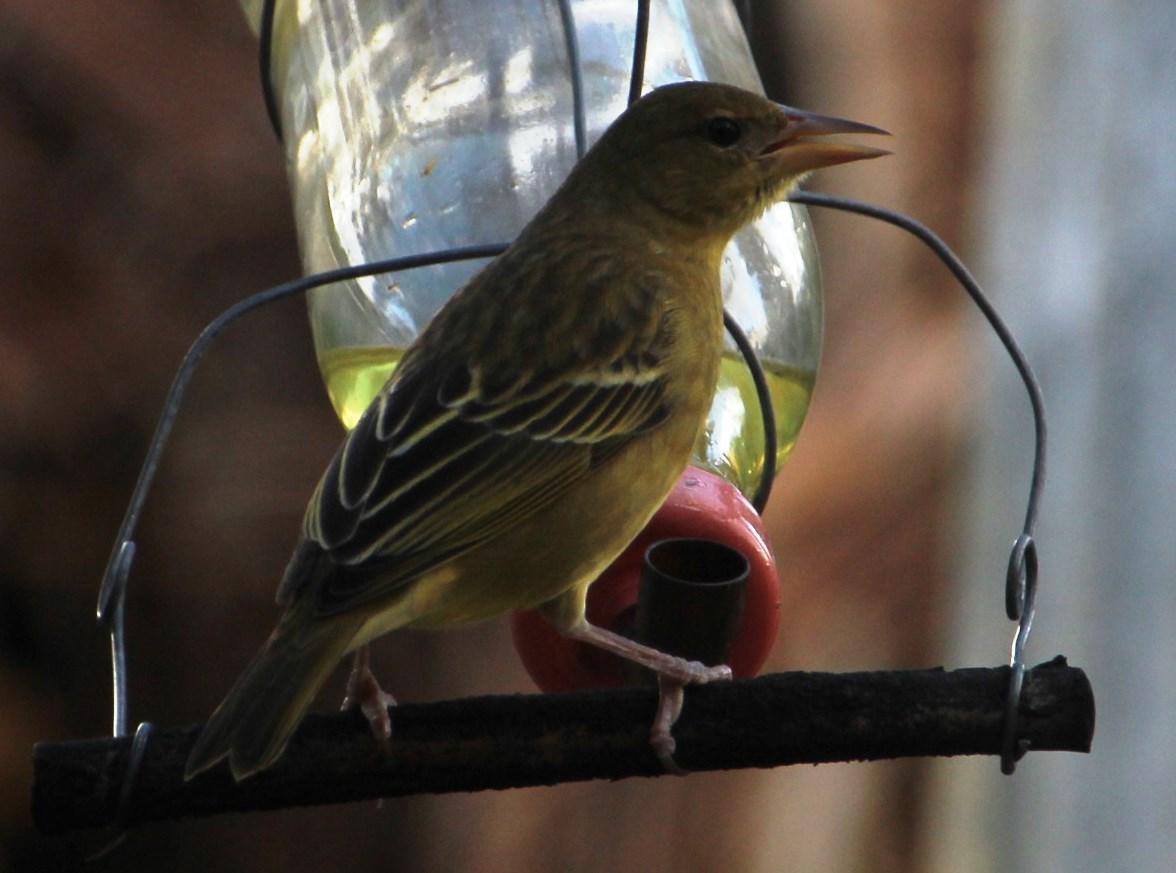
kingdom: Animalia
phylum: Chordata
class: Aves
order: Passeriformes
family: Ploceidae
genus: Ploceus
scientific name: Ploceus capensis
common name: Cape weaver
